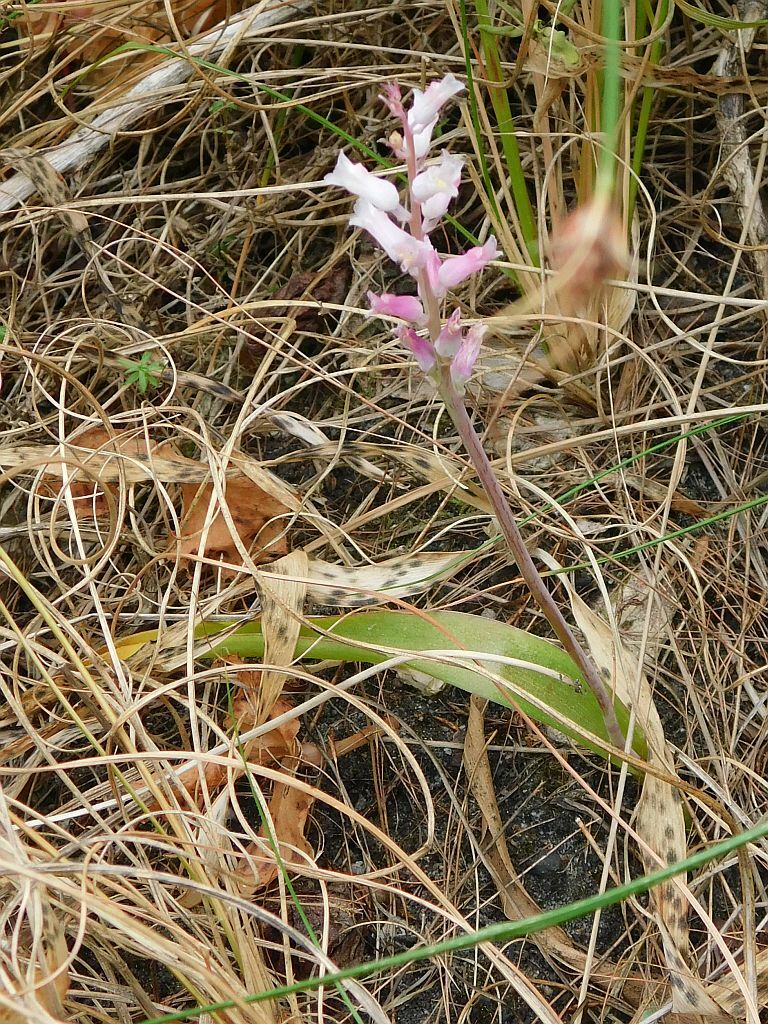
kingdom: Plantae
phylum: Tracheophyta
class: Liliopsida
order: Asparagales
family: Asparagaceae
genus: Lachenalia
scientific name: Lachenalia rosea
